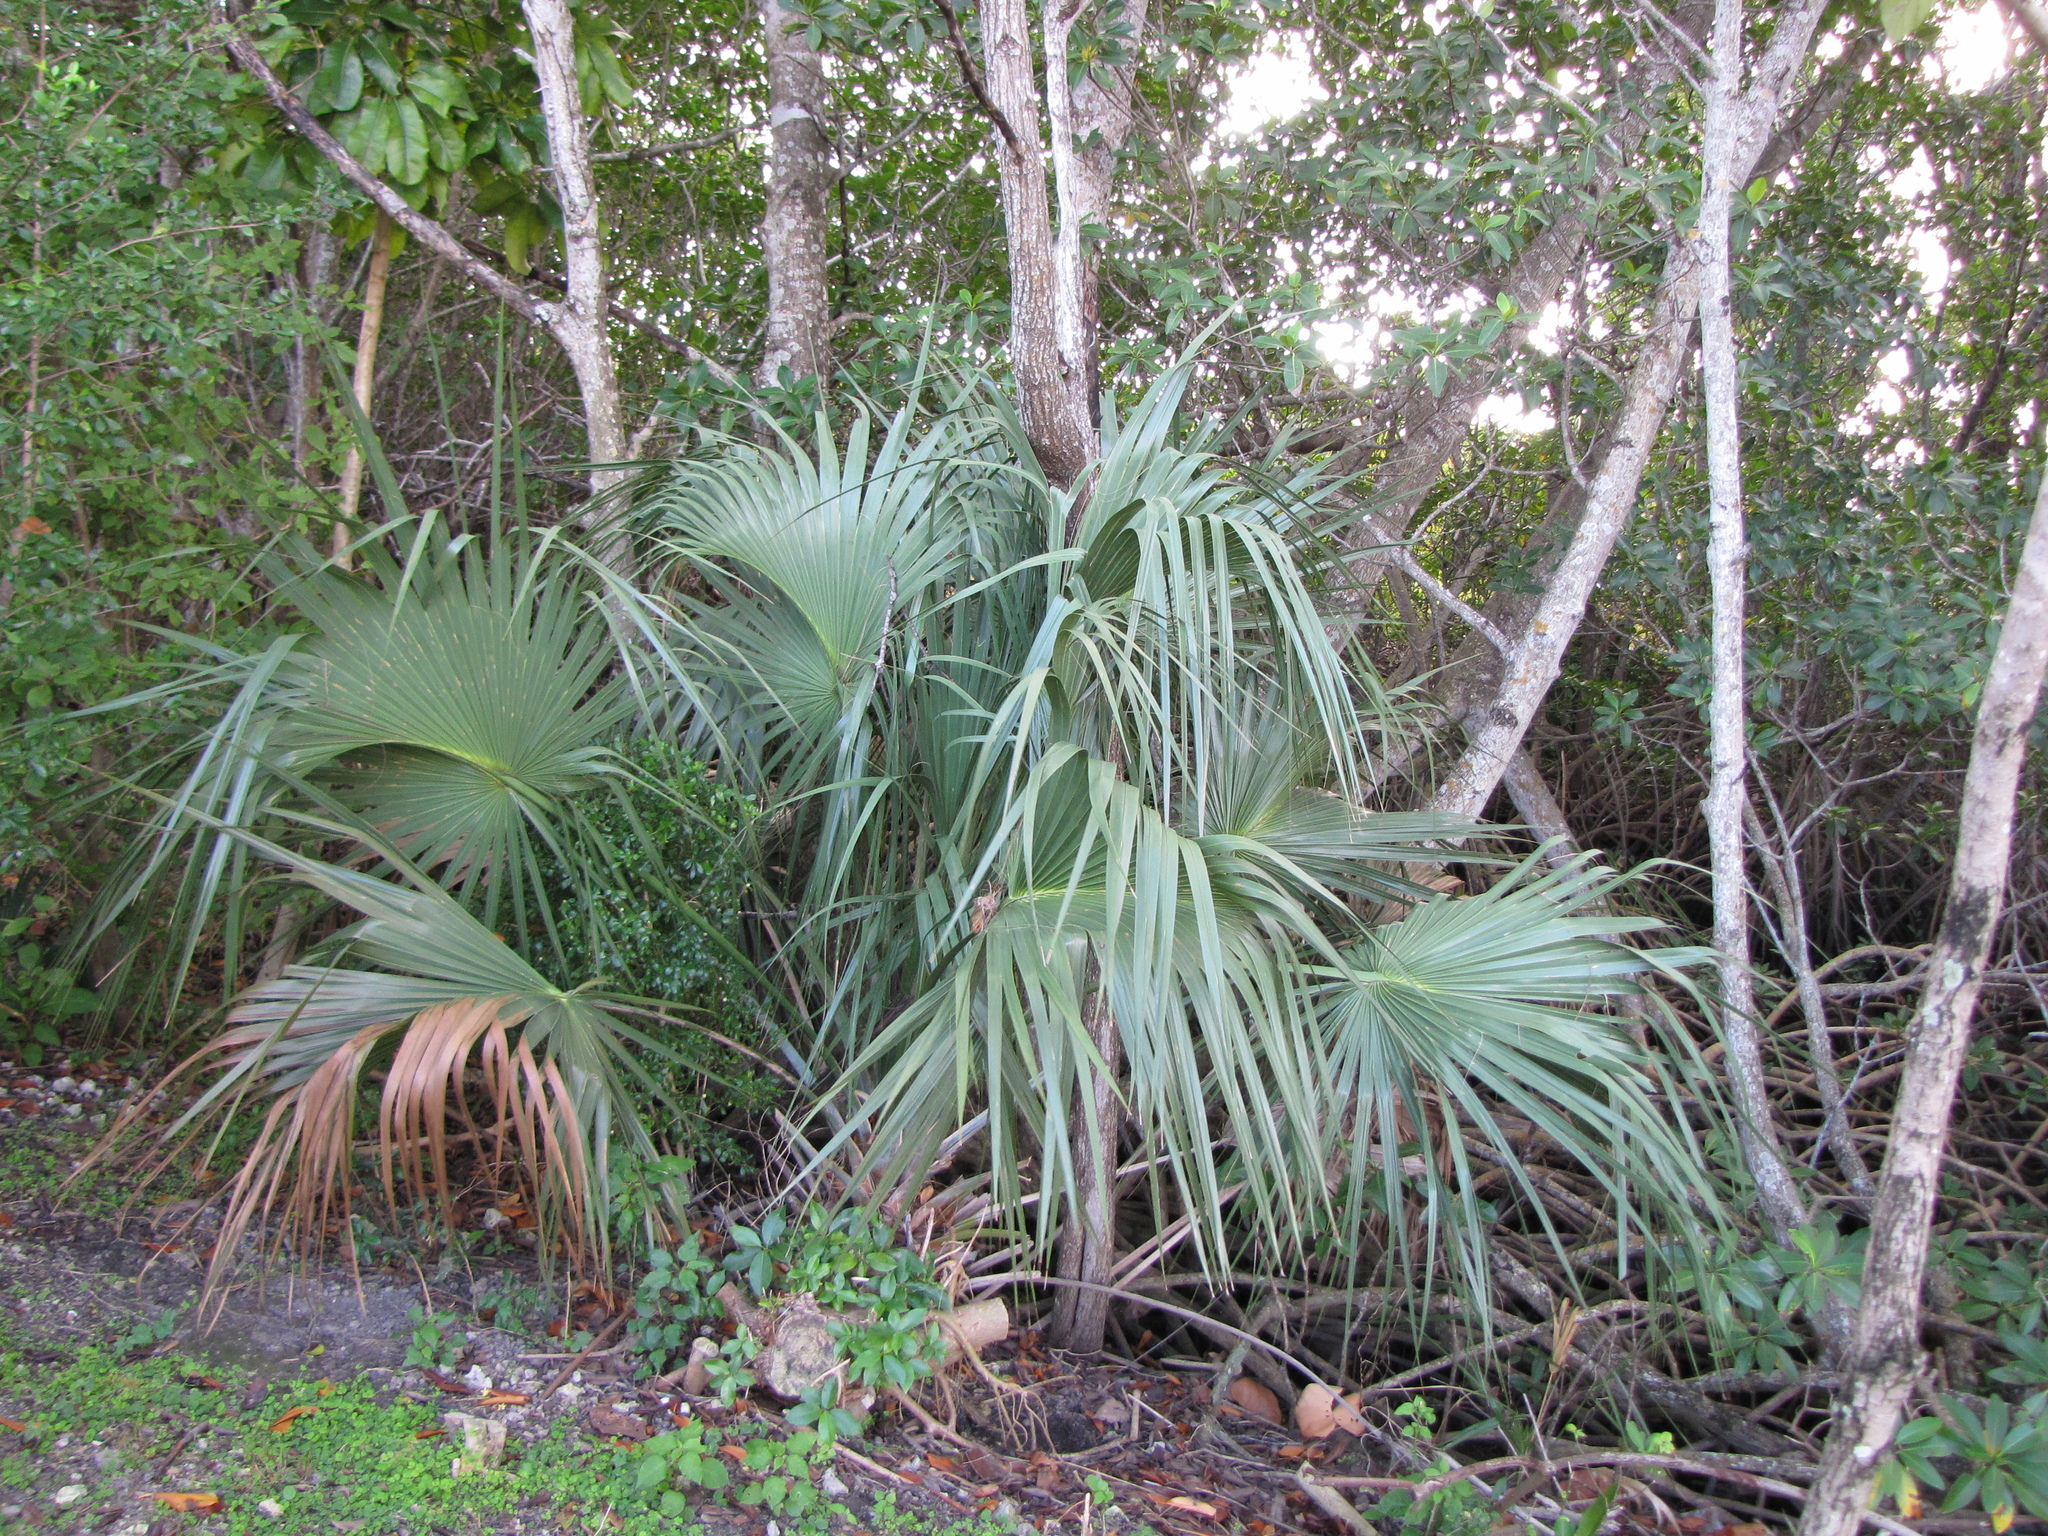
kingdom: Plantae
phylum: Tracheophyta
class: Liliopsida
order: Arecales
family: Arecaceae
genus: Sabal
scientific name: Sabal palmetto
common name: Blue palmetto
